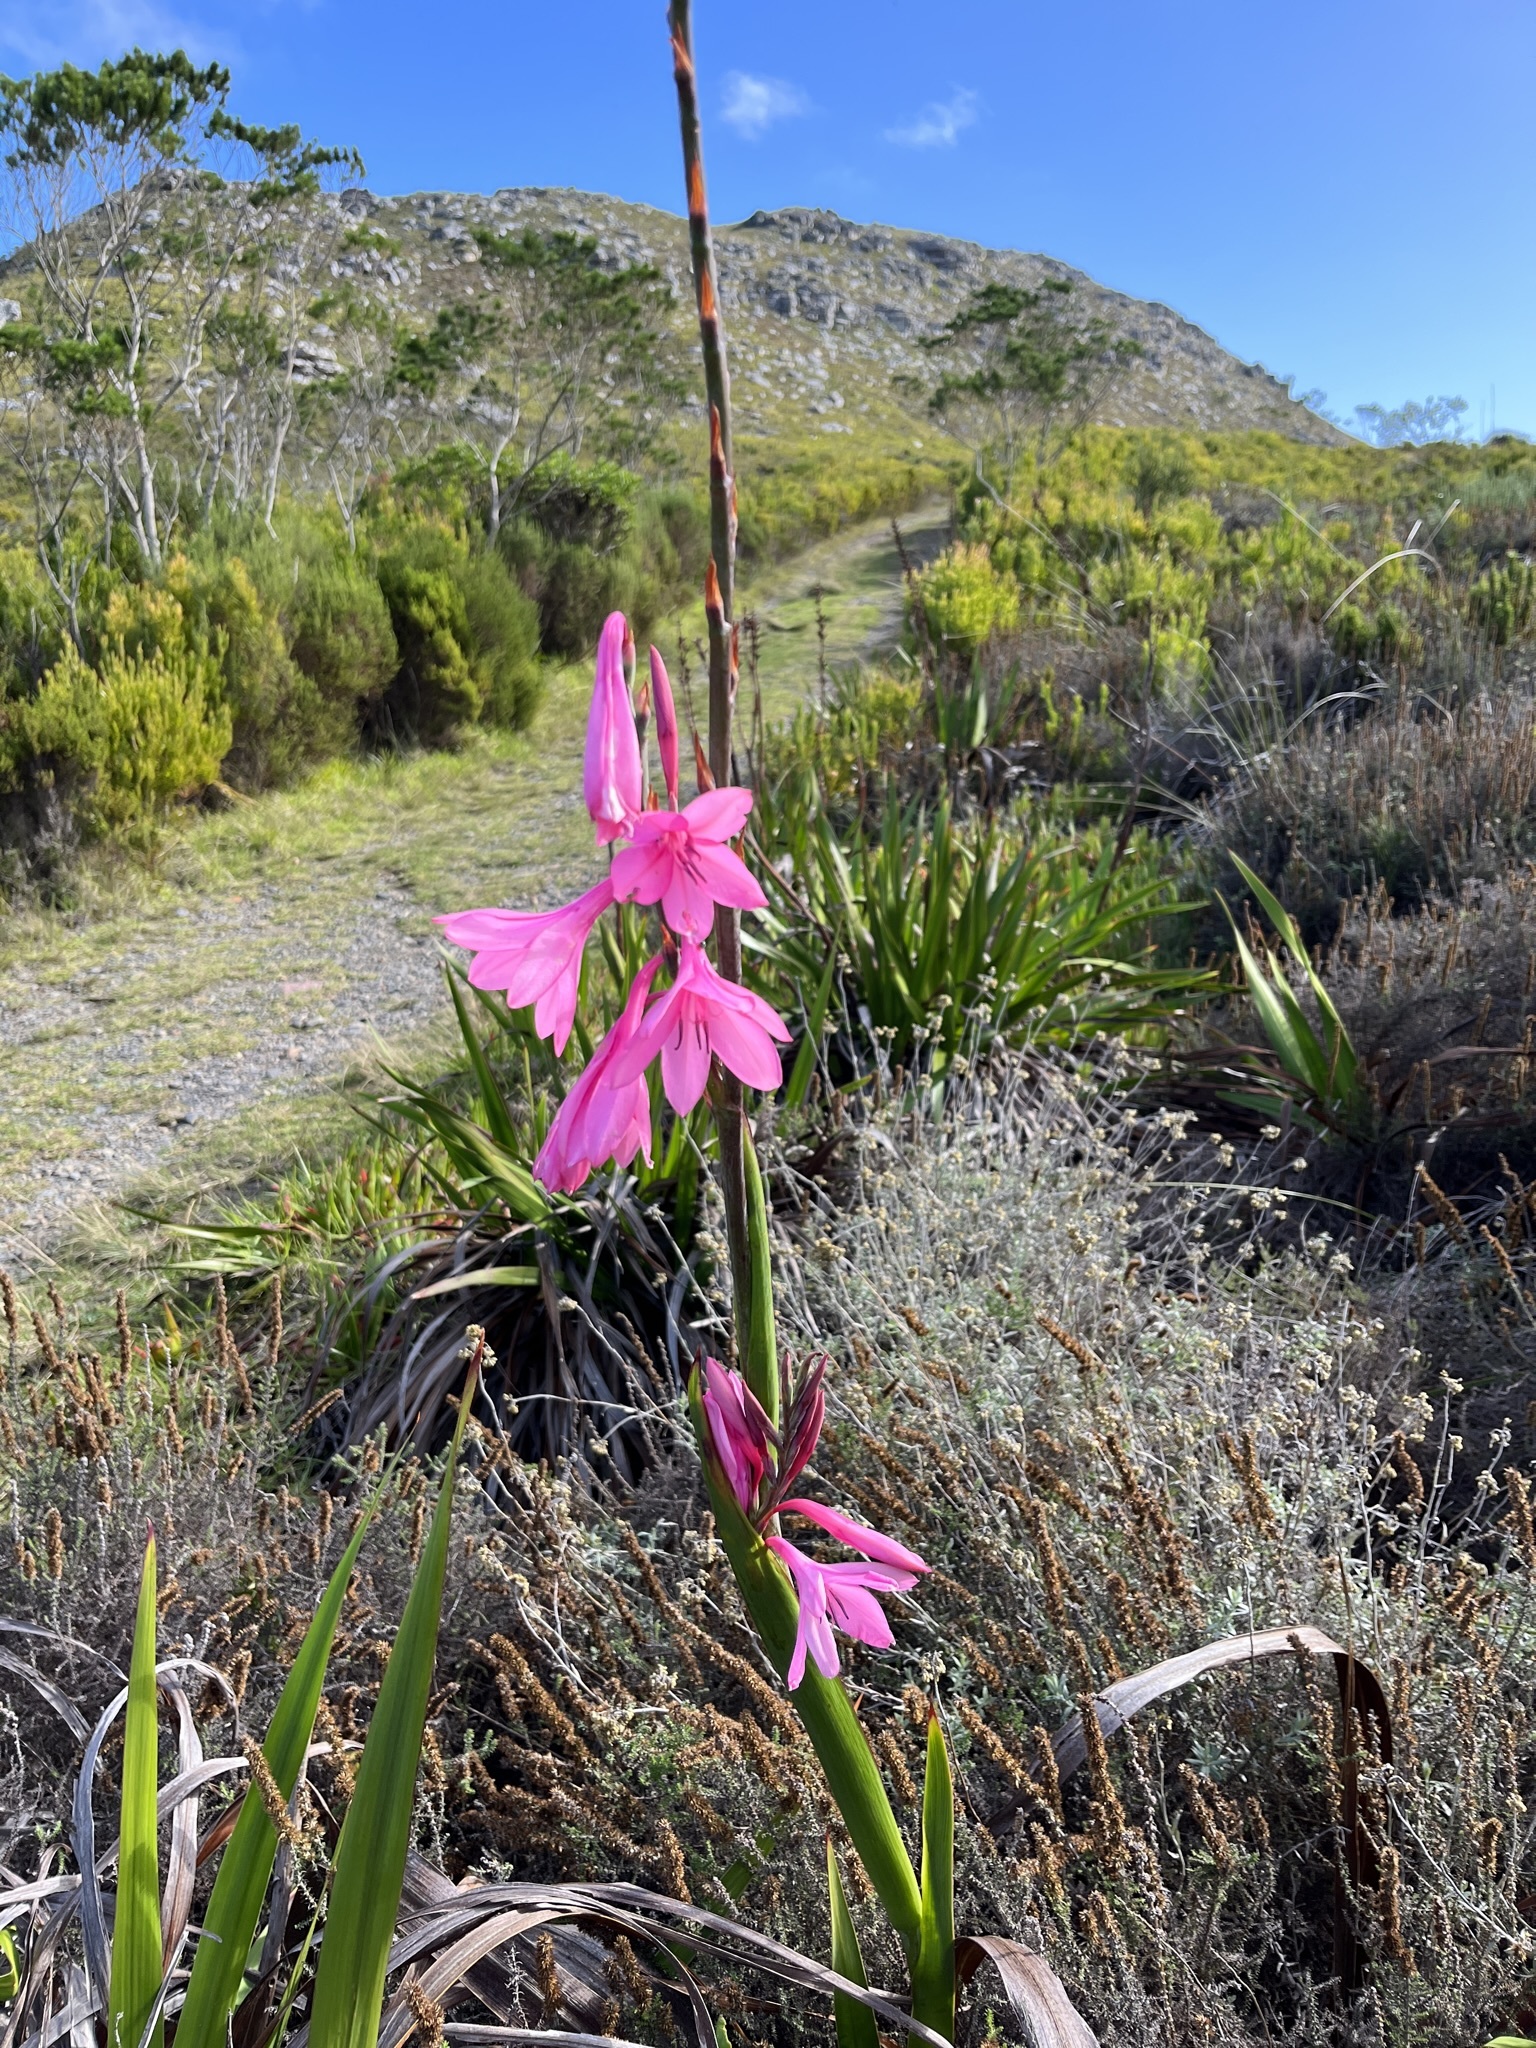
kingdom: Plantae
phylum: Tracheophyta
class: Liliopsida
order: Asparagales
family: Iridaceae
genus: Watsonia
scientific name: Watsonia borbonica
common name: Bugle-lily
